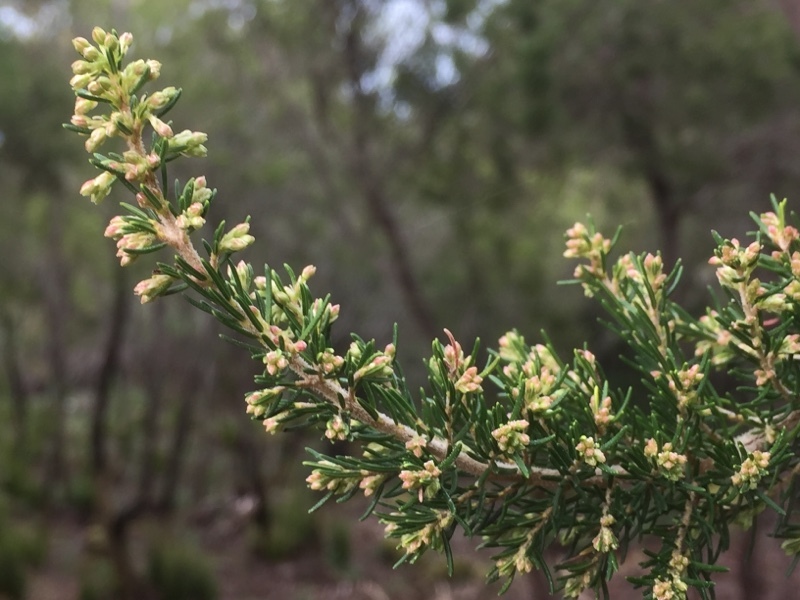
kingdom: Plantae
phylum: Tracheophyta
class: Magnoliopsida
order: Ericales
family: Ericaceae
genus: Erica
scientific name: Erica canariensis
